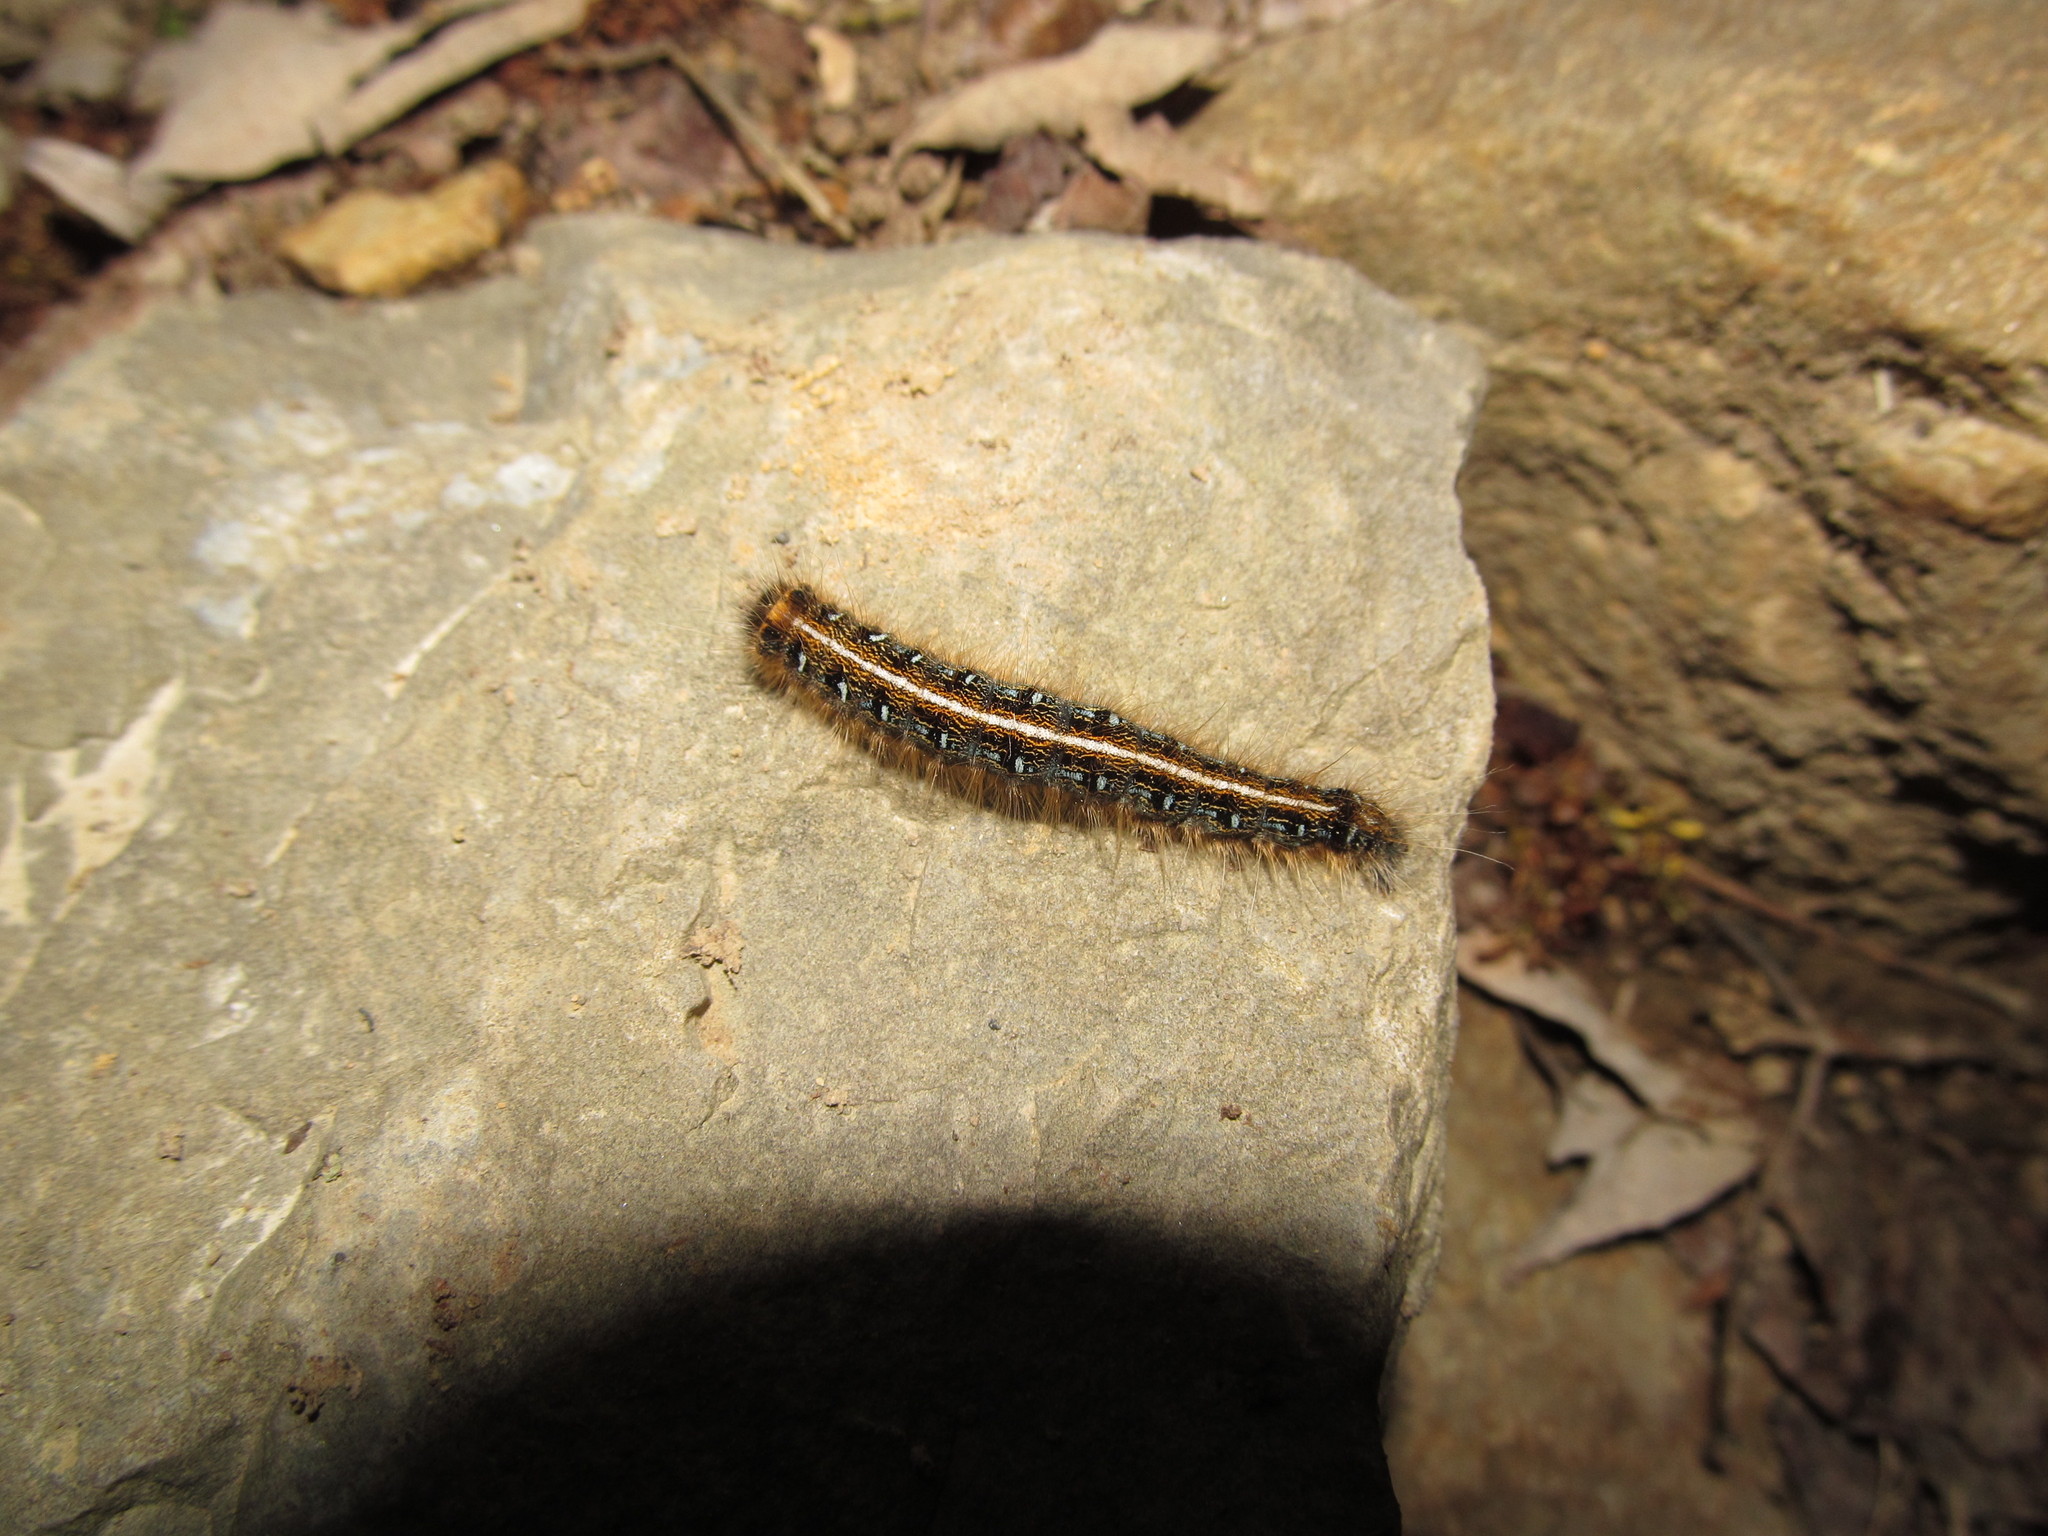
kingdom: Animalia
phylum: Arthropoda
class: Insecta
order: Lepidoptera
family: Lasiocampidae
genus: Malacosoma
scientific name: Malacosoma americana
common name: Eastern tent caterpillar moth
